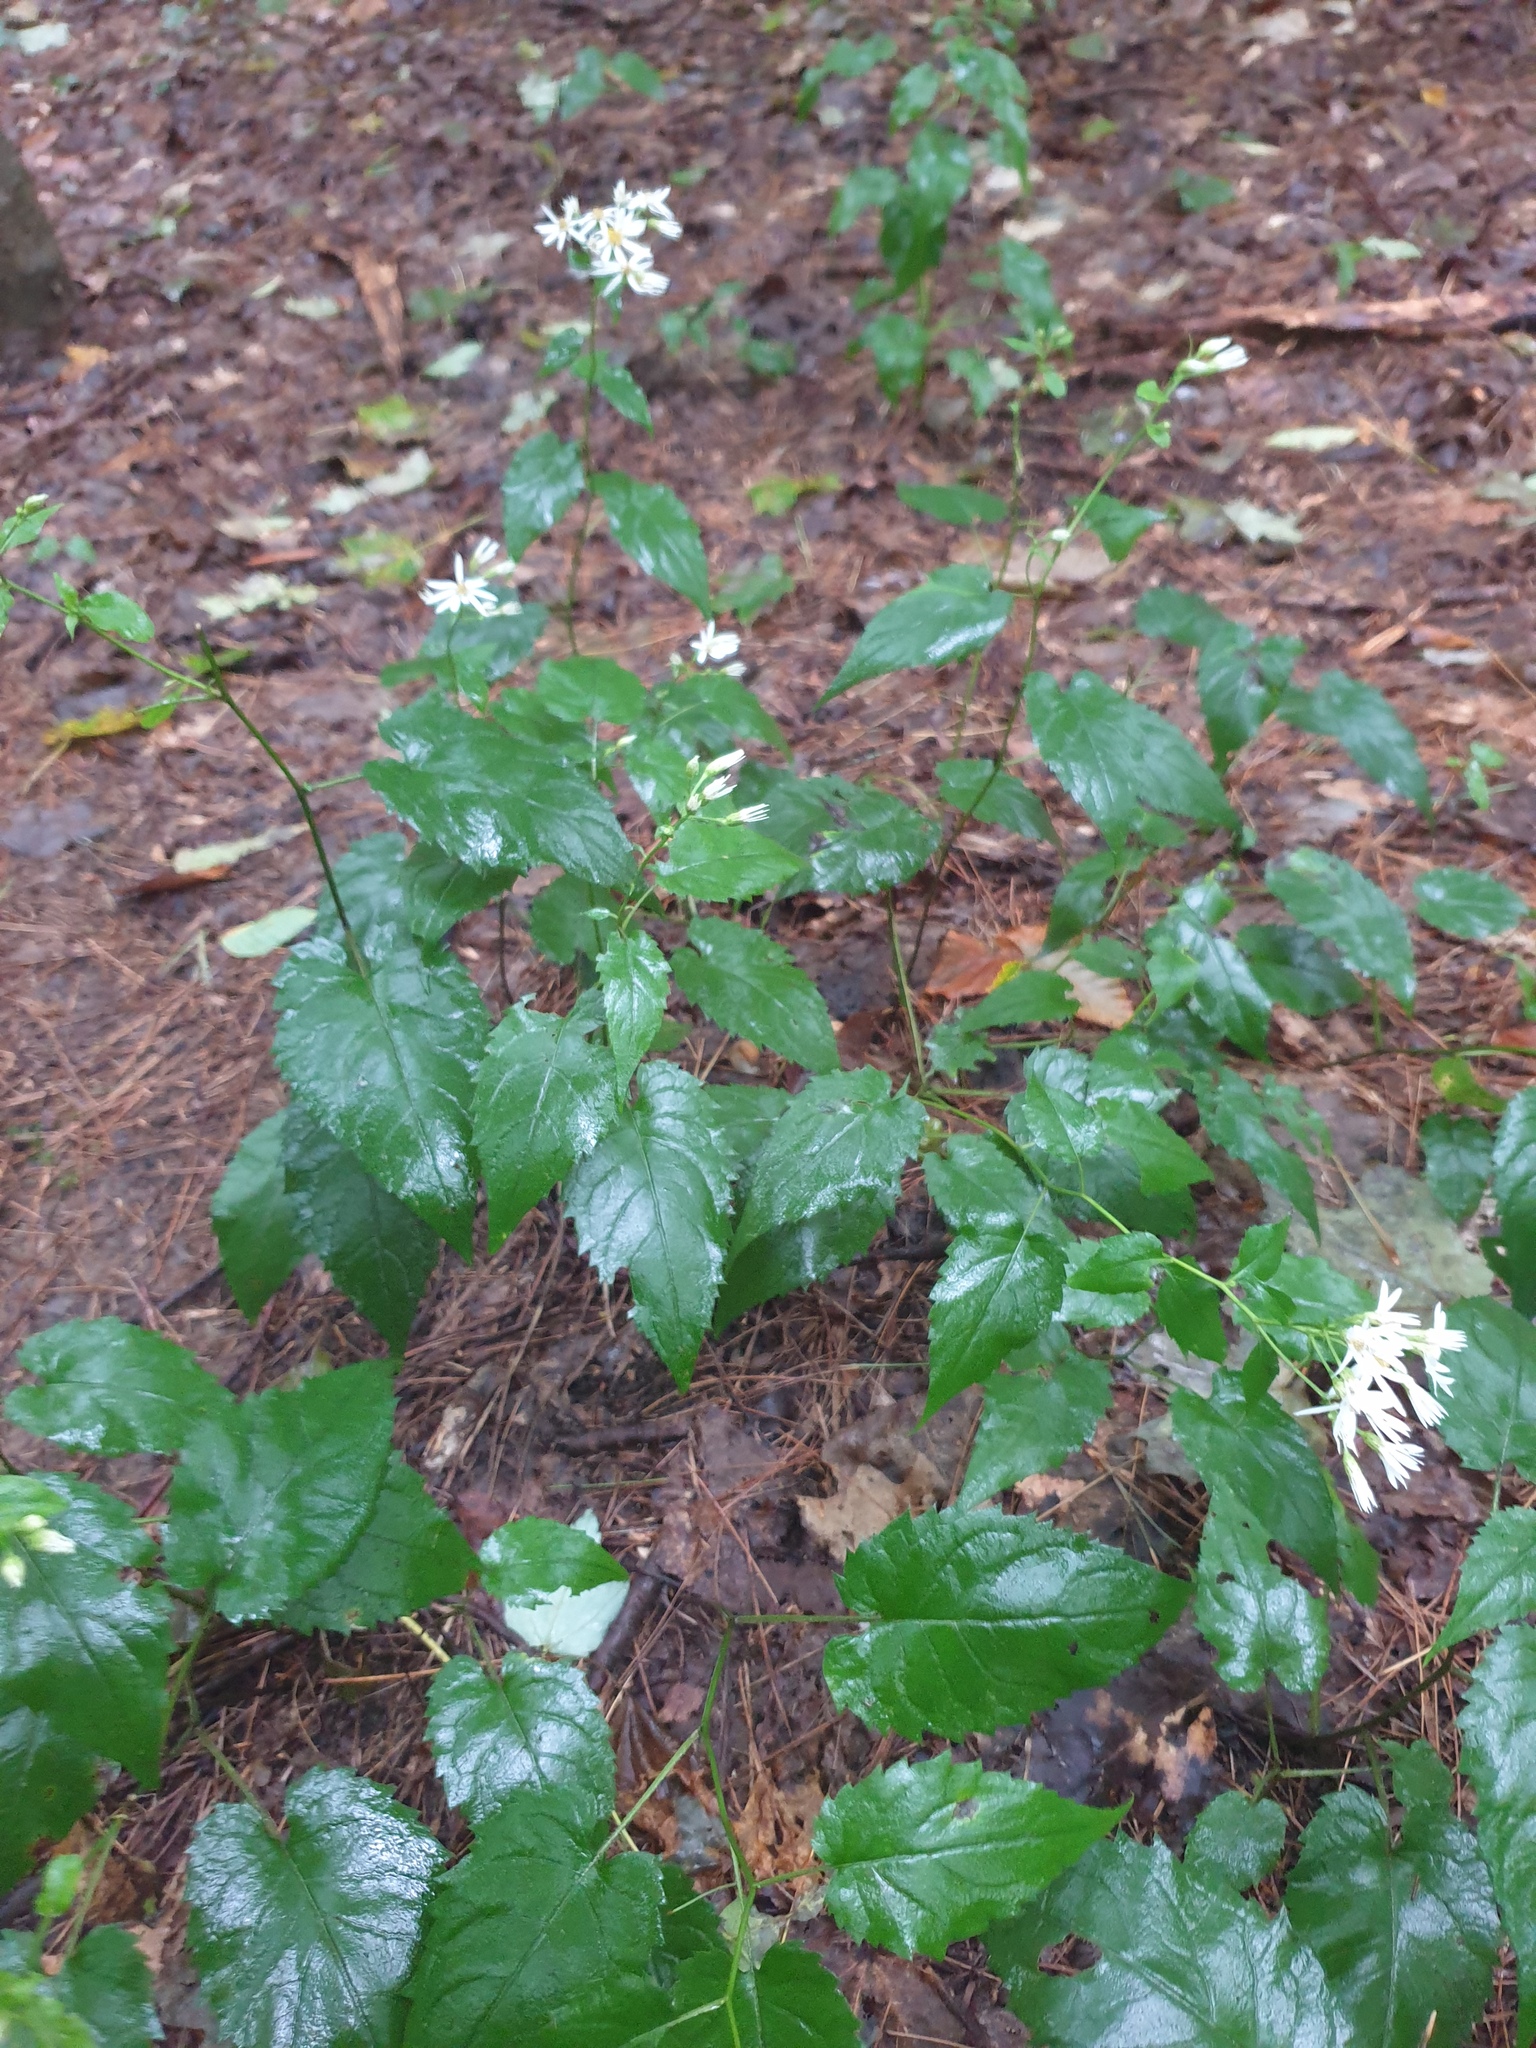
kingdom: Plantae
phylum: Tracheophyta
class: Magnoliopsida
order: Asterales
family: Asteraceae
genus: Eurybia
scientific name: Eurybia divaricata
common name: White wood aster
